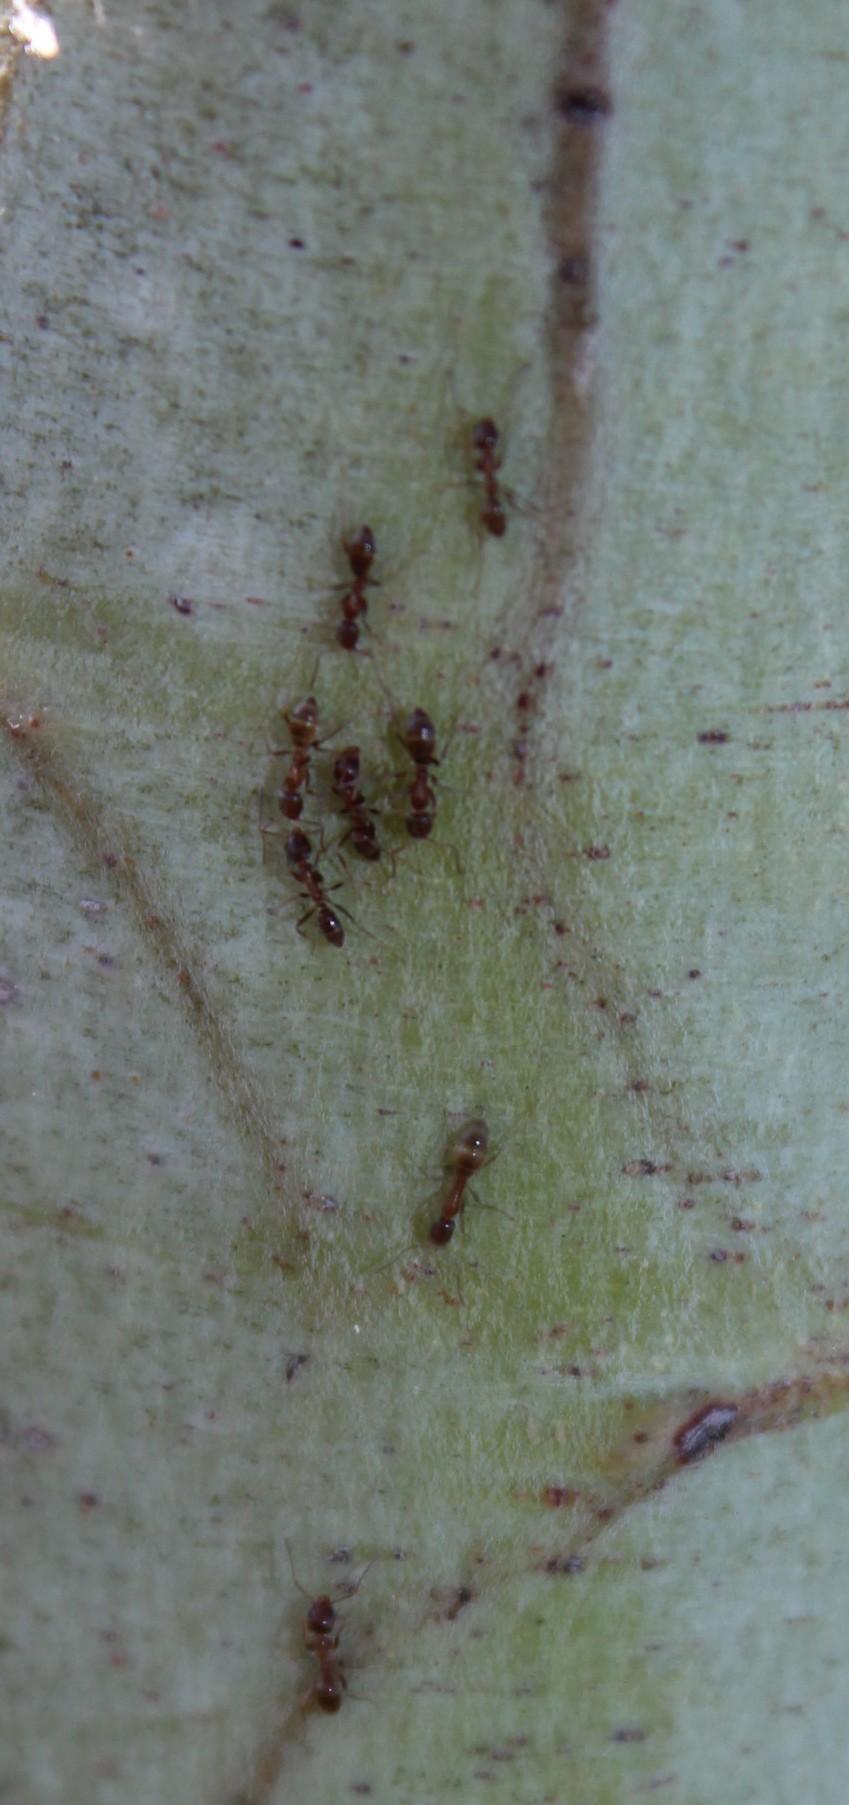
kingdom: Animalia
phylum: Arthropoda
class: Insecta
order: Hymenoptera
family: Formicidae
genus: Linepithema
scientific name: Linepithema humile
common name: Argentine ant
